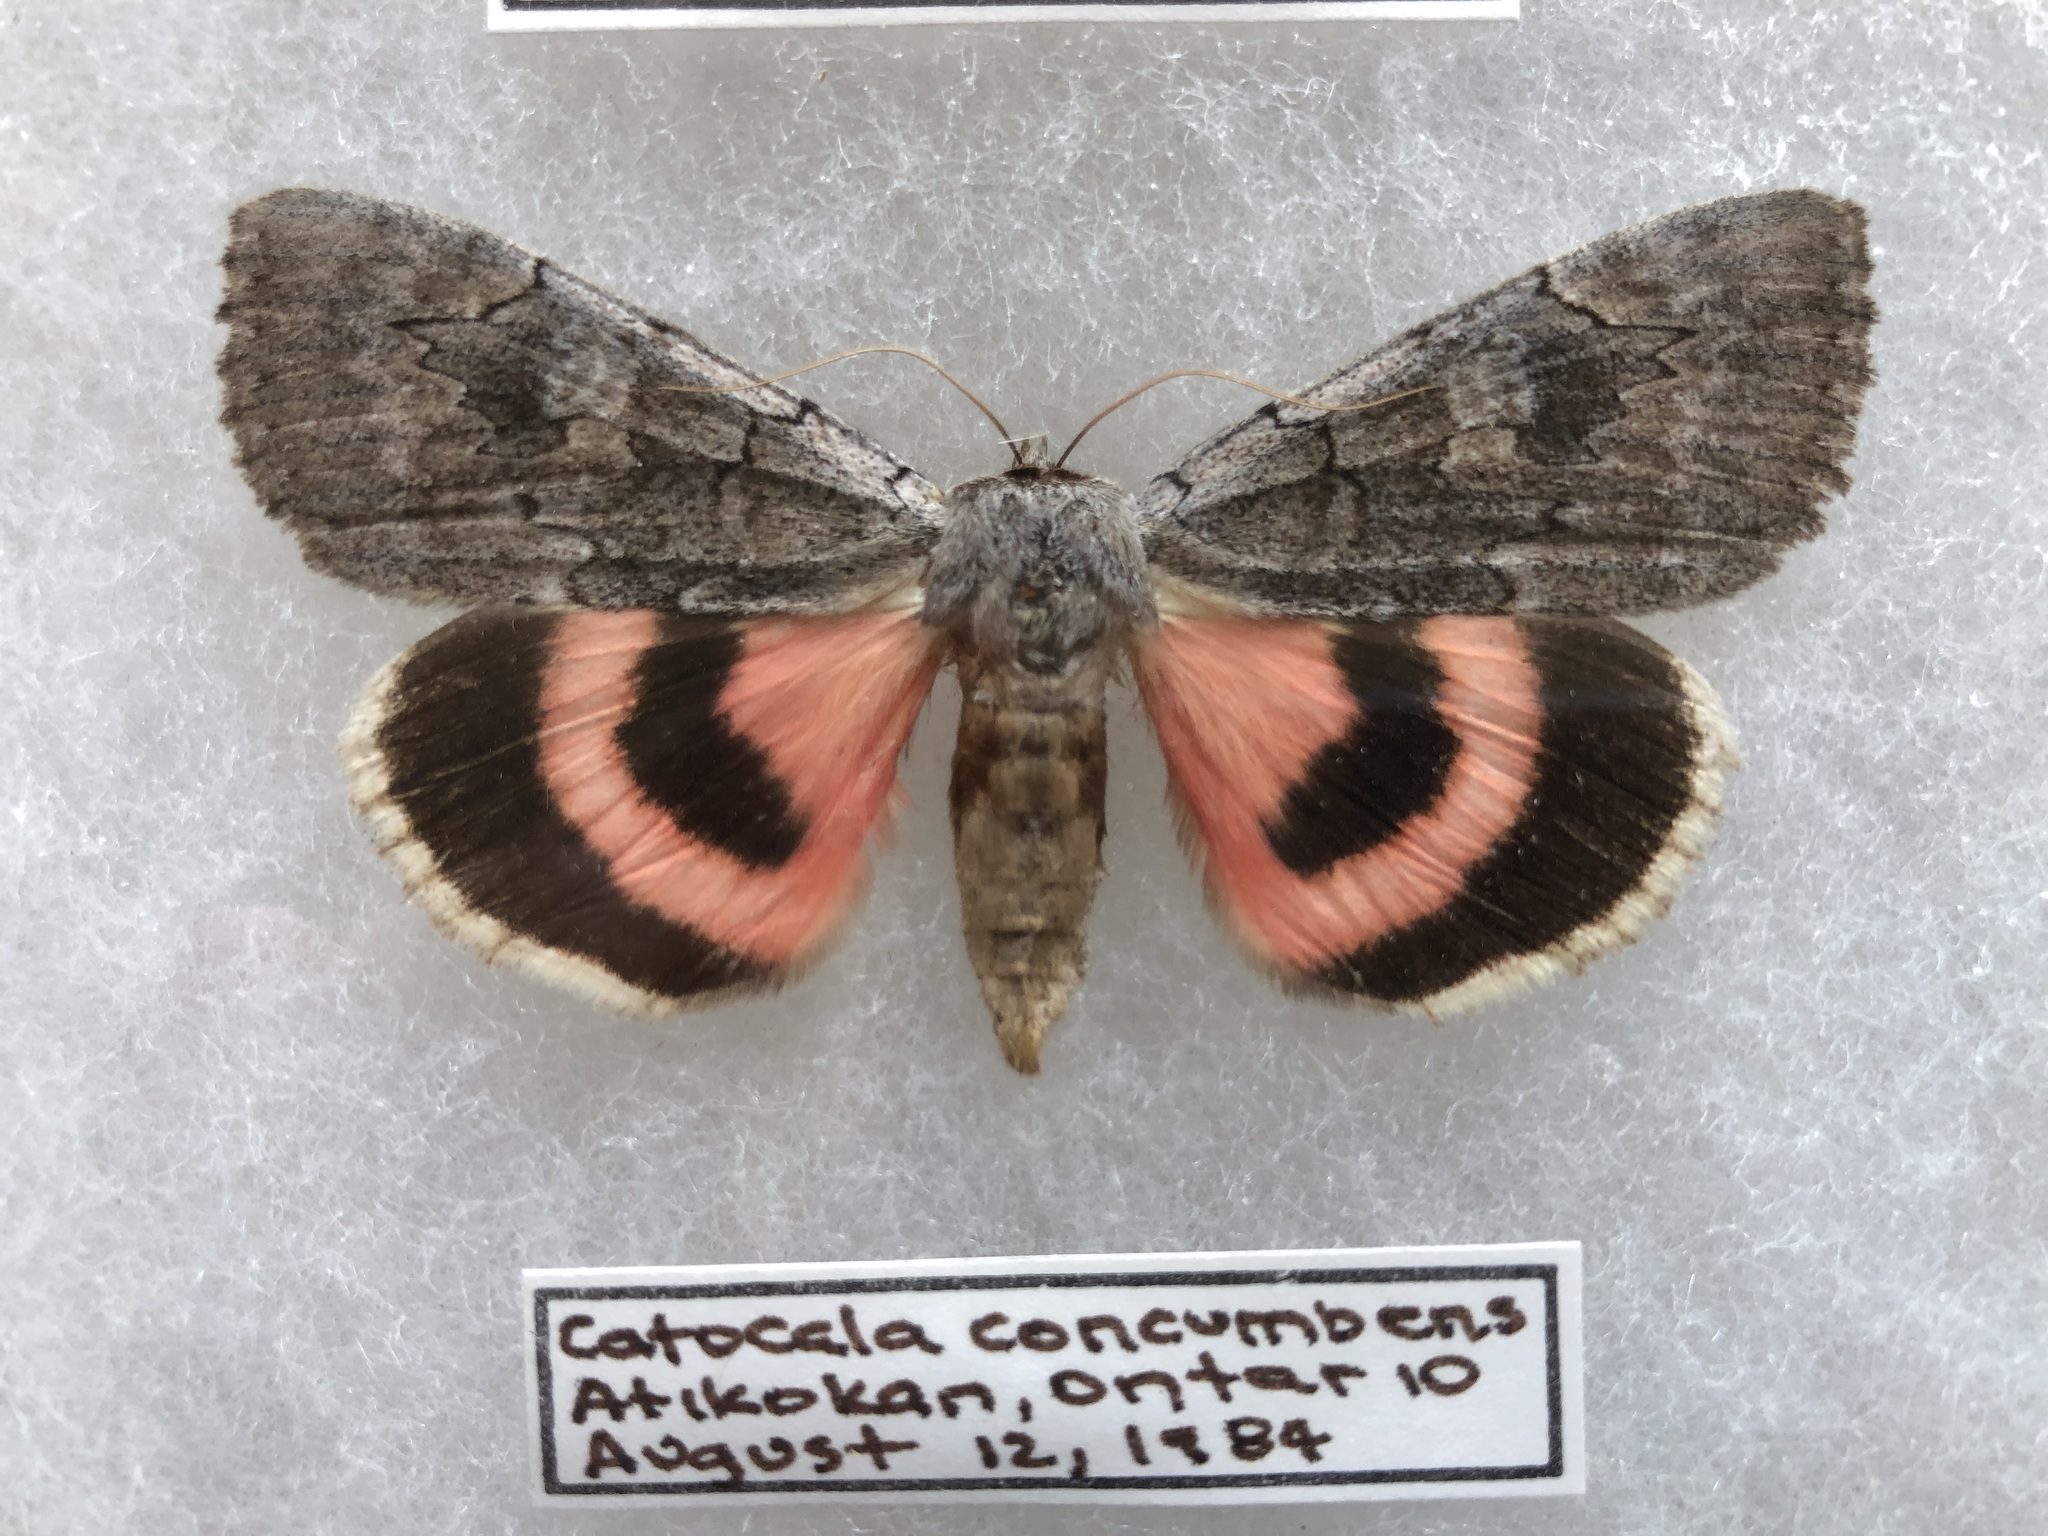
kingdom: Animalia
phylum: Arthropoda
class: Insecta
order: Lepidoptera
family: Erebidae
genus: Catocala
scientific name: Catocala concumbens
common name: Pink underwing
